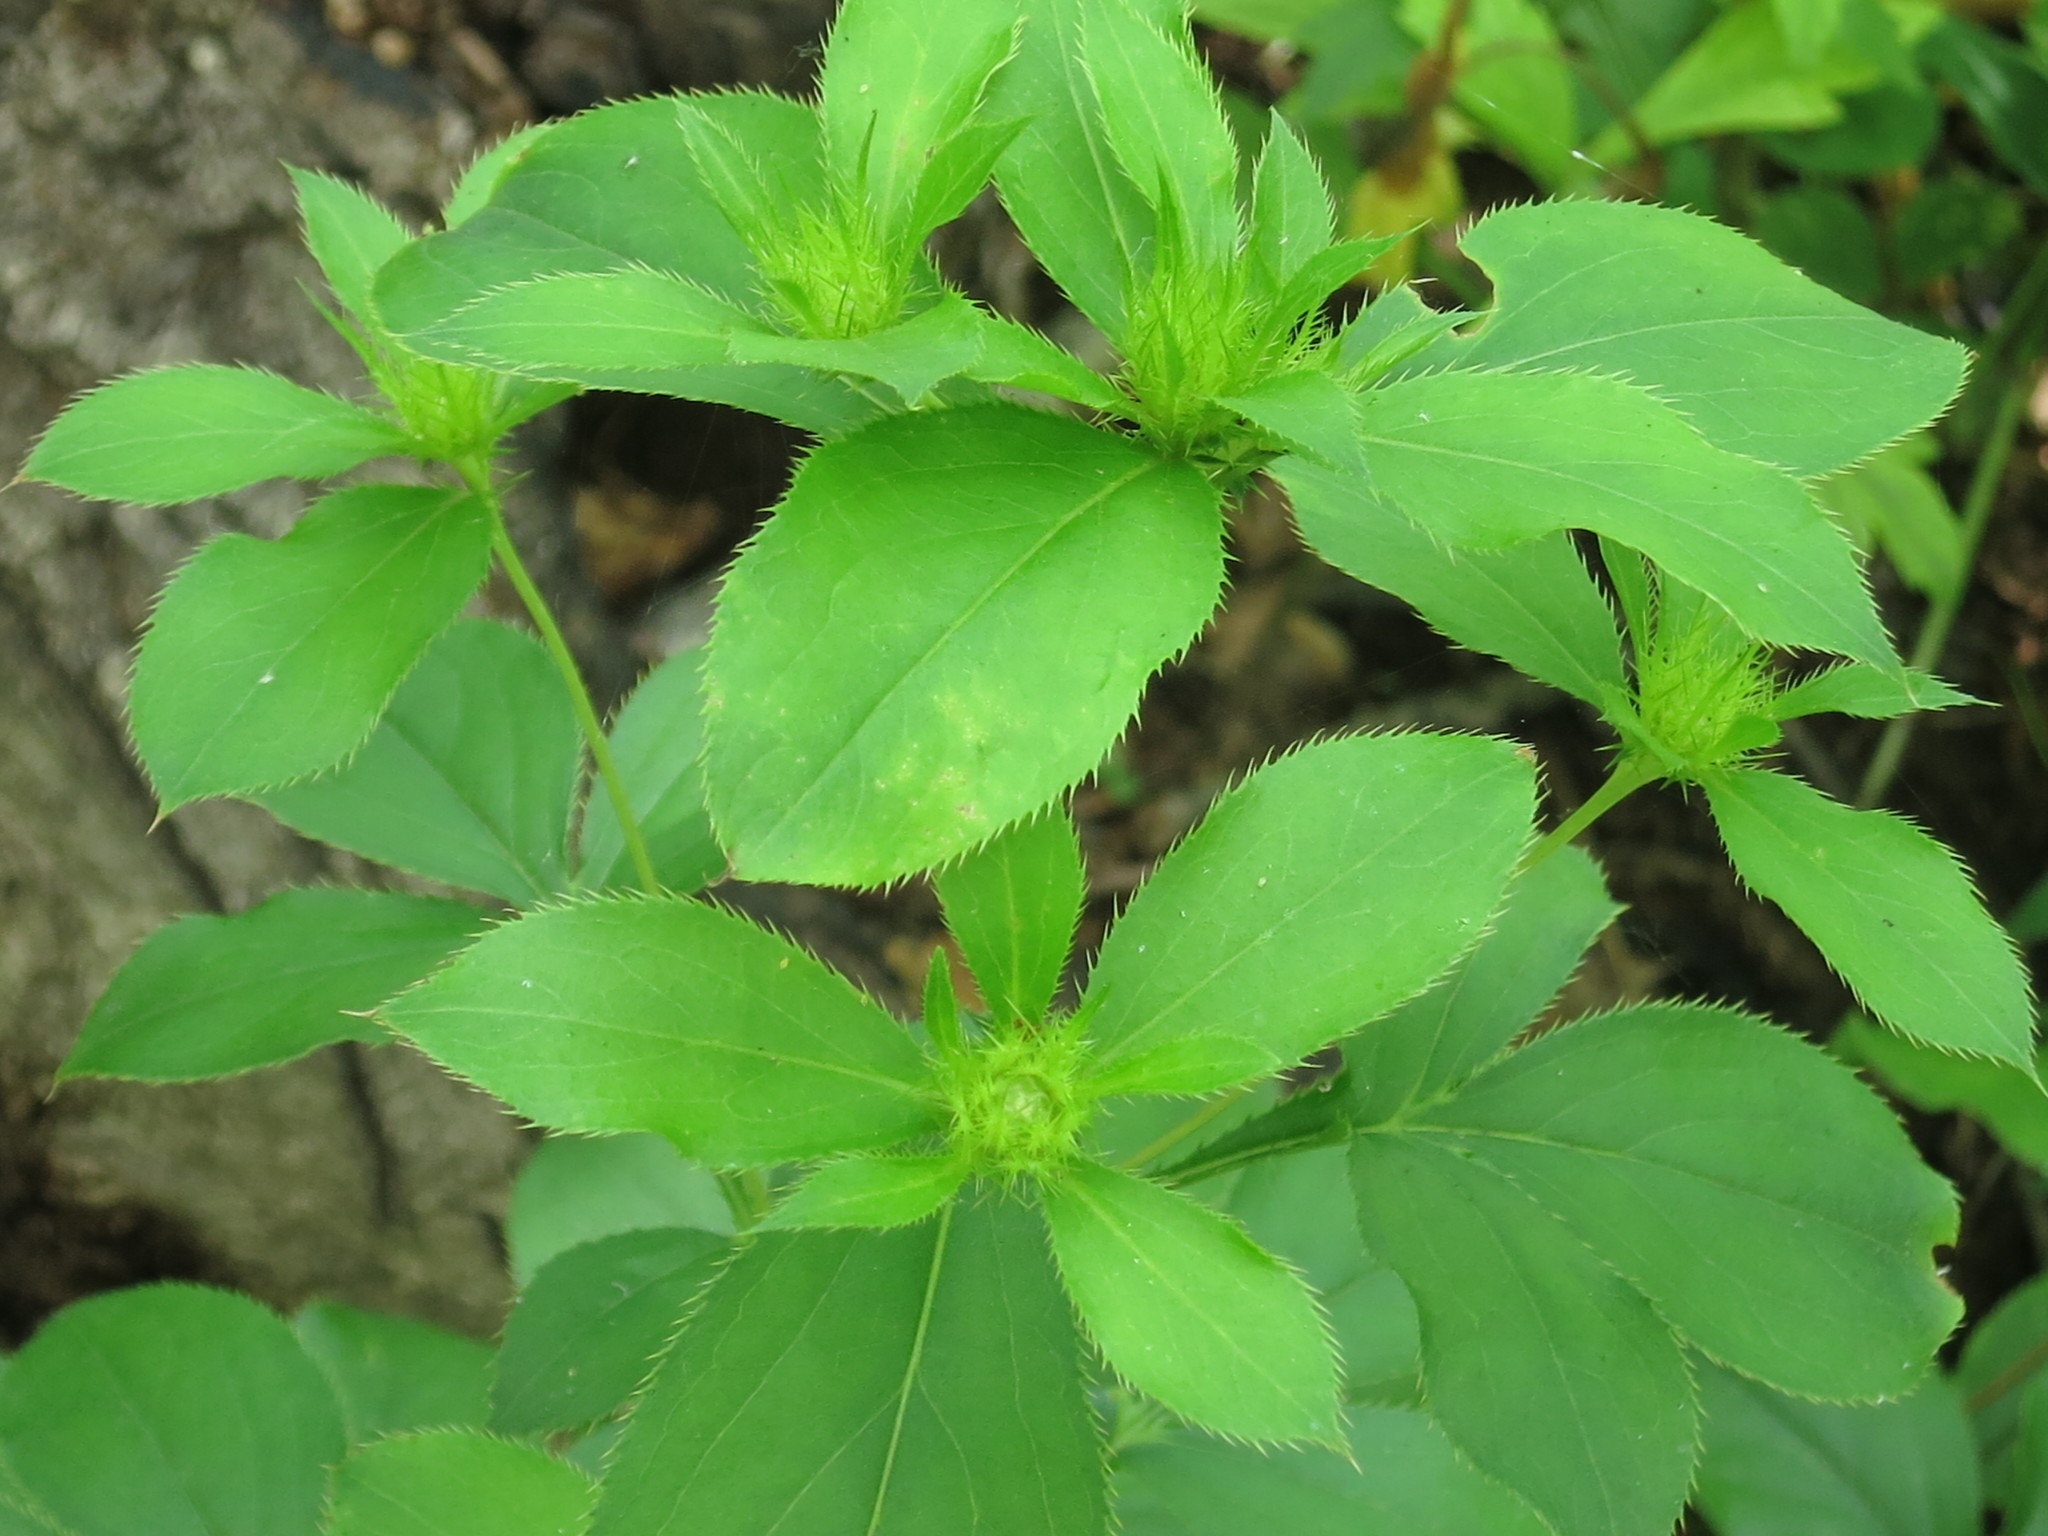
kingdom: Plantae
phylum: Tracheophyta
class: Magnoliopsida
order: Asterales
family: Asteraceae
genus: Atractylodes
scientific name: Atractylodes lancea
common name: Southern tsangshu
